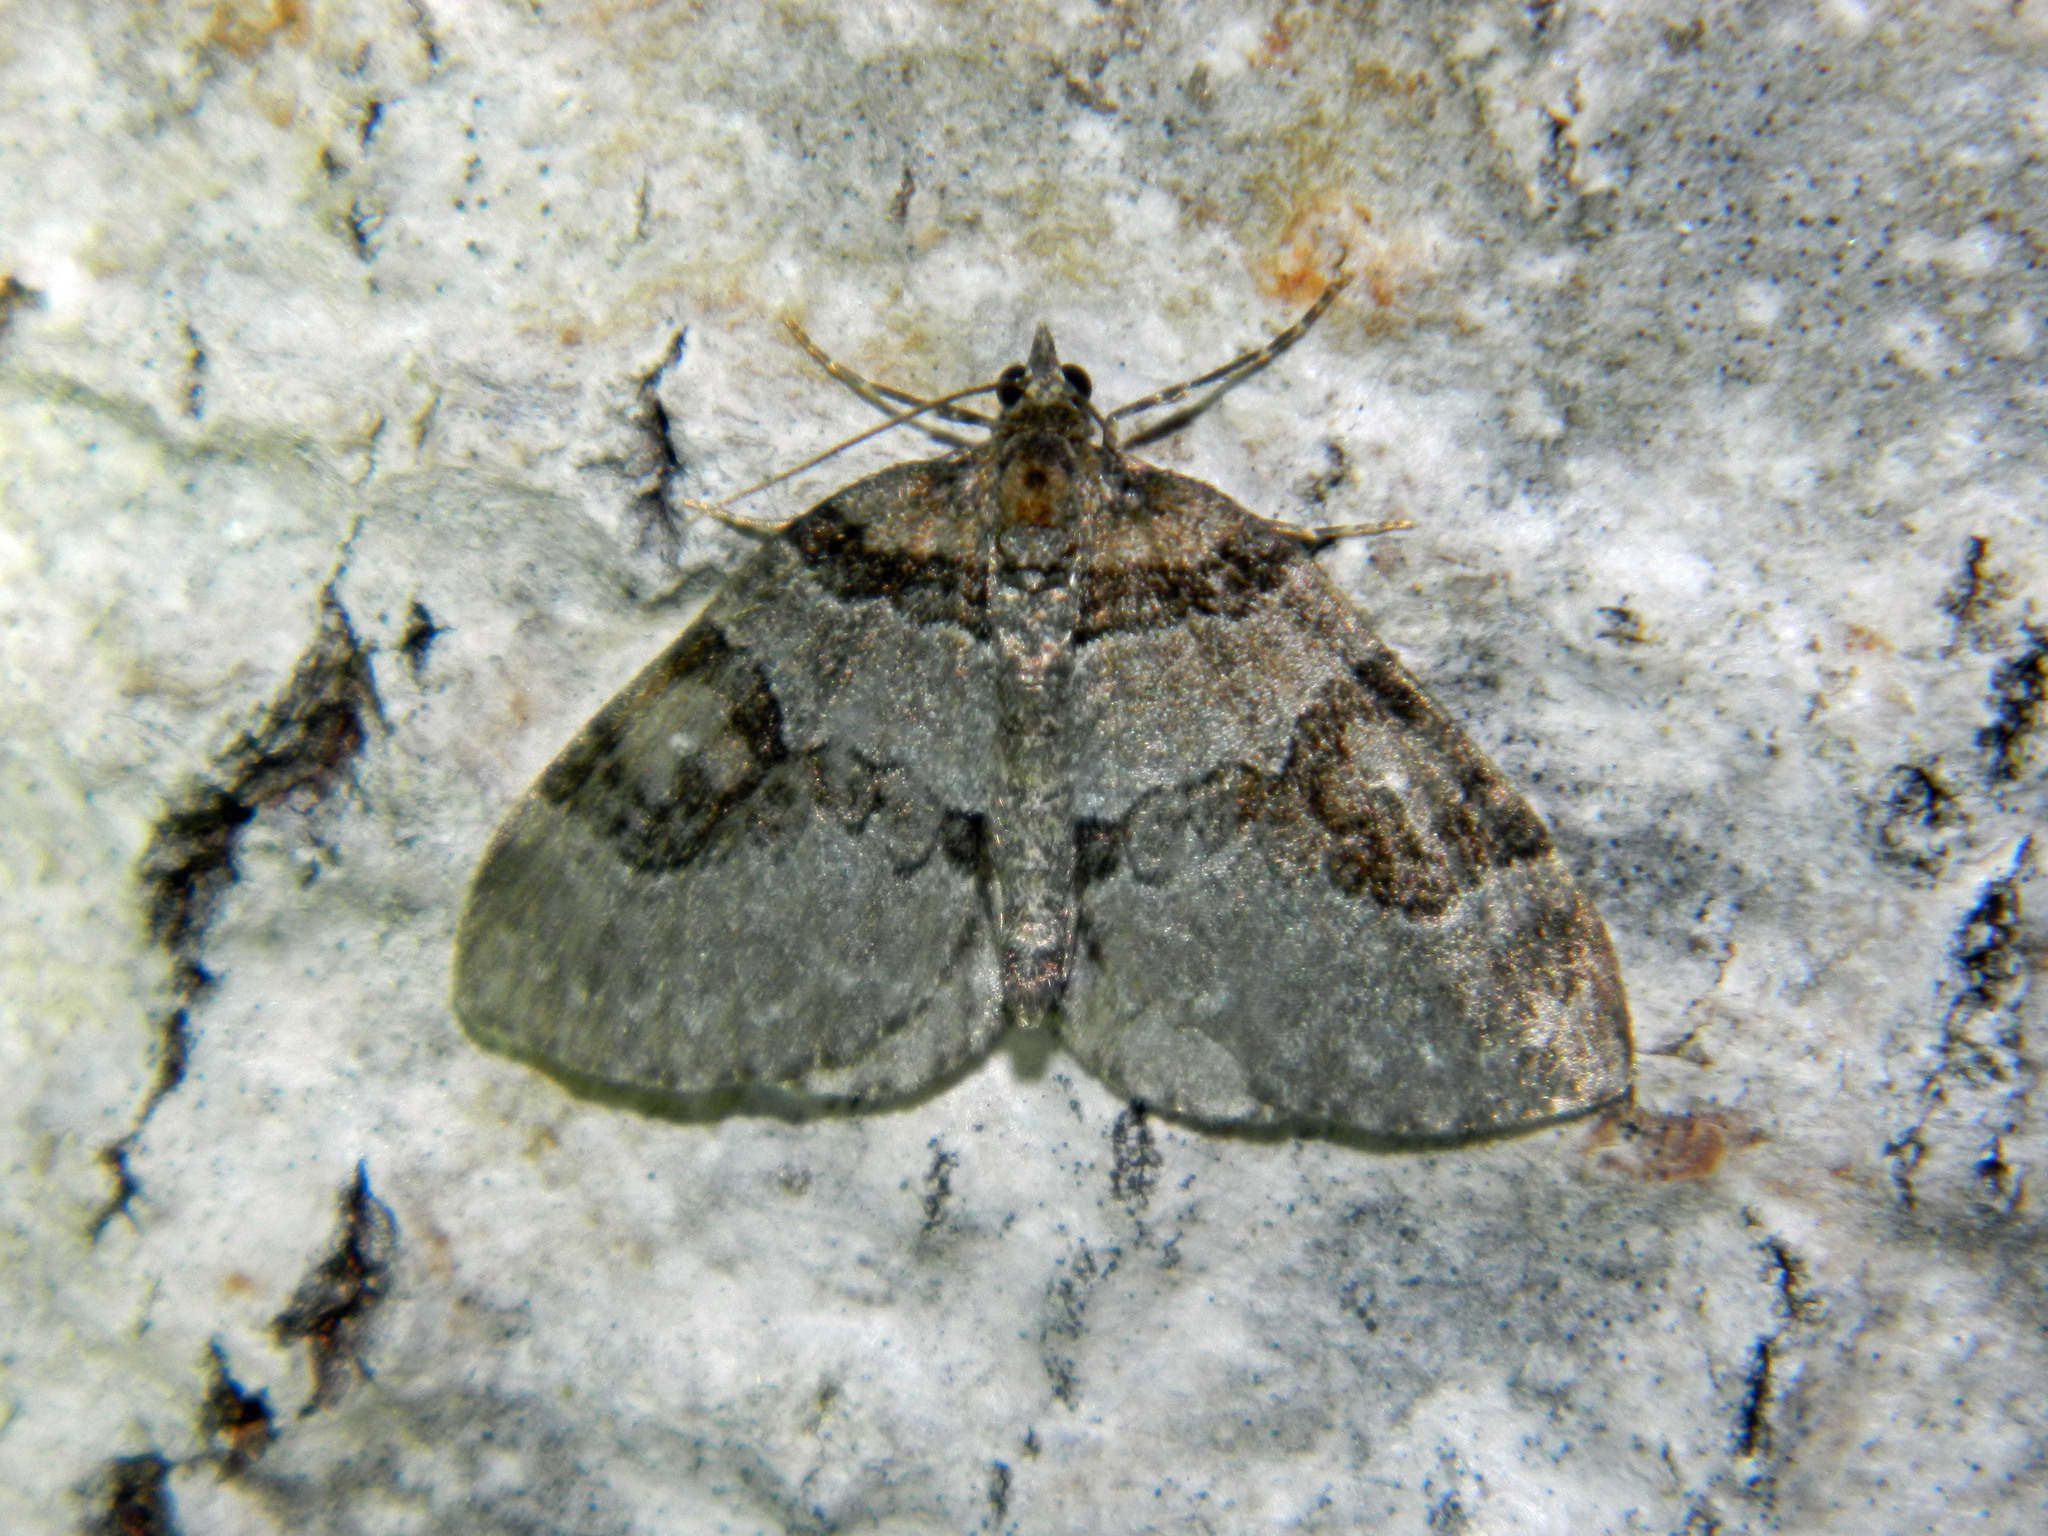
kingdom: Animalia
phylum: Arthropoda
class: Insecta
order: Lepidoptera
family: Geometridae
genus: Plemyria
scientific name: Plemyria georgii
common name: George's carpet moth
